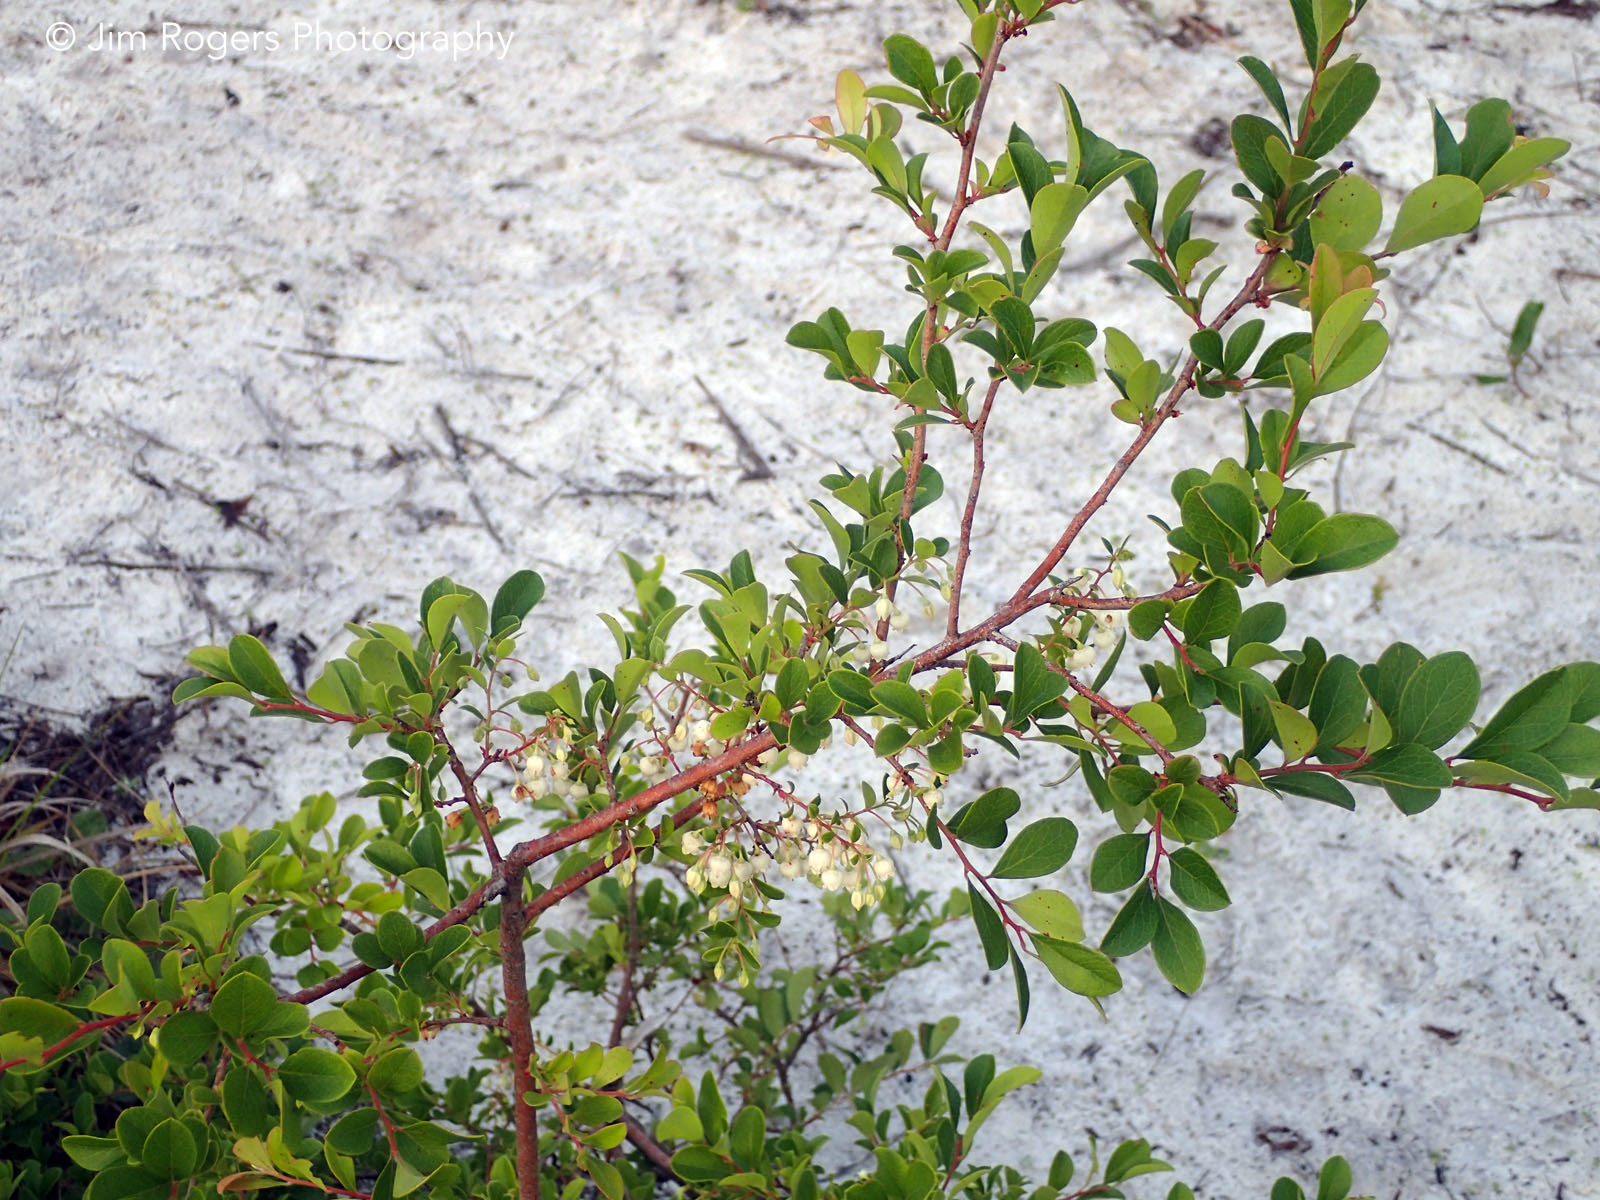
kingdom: Plantae
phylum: Tracheophyta
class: Magnoliopsida
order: Ericales
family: Ericaceae
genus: Vaccinium
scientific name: Vaccinium arboreum
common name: Farkleberry
